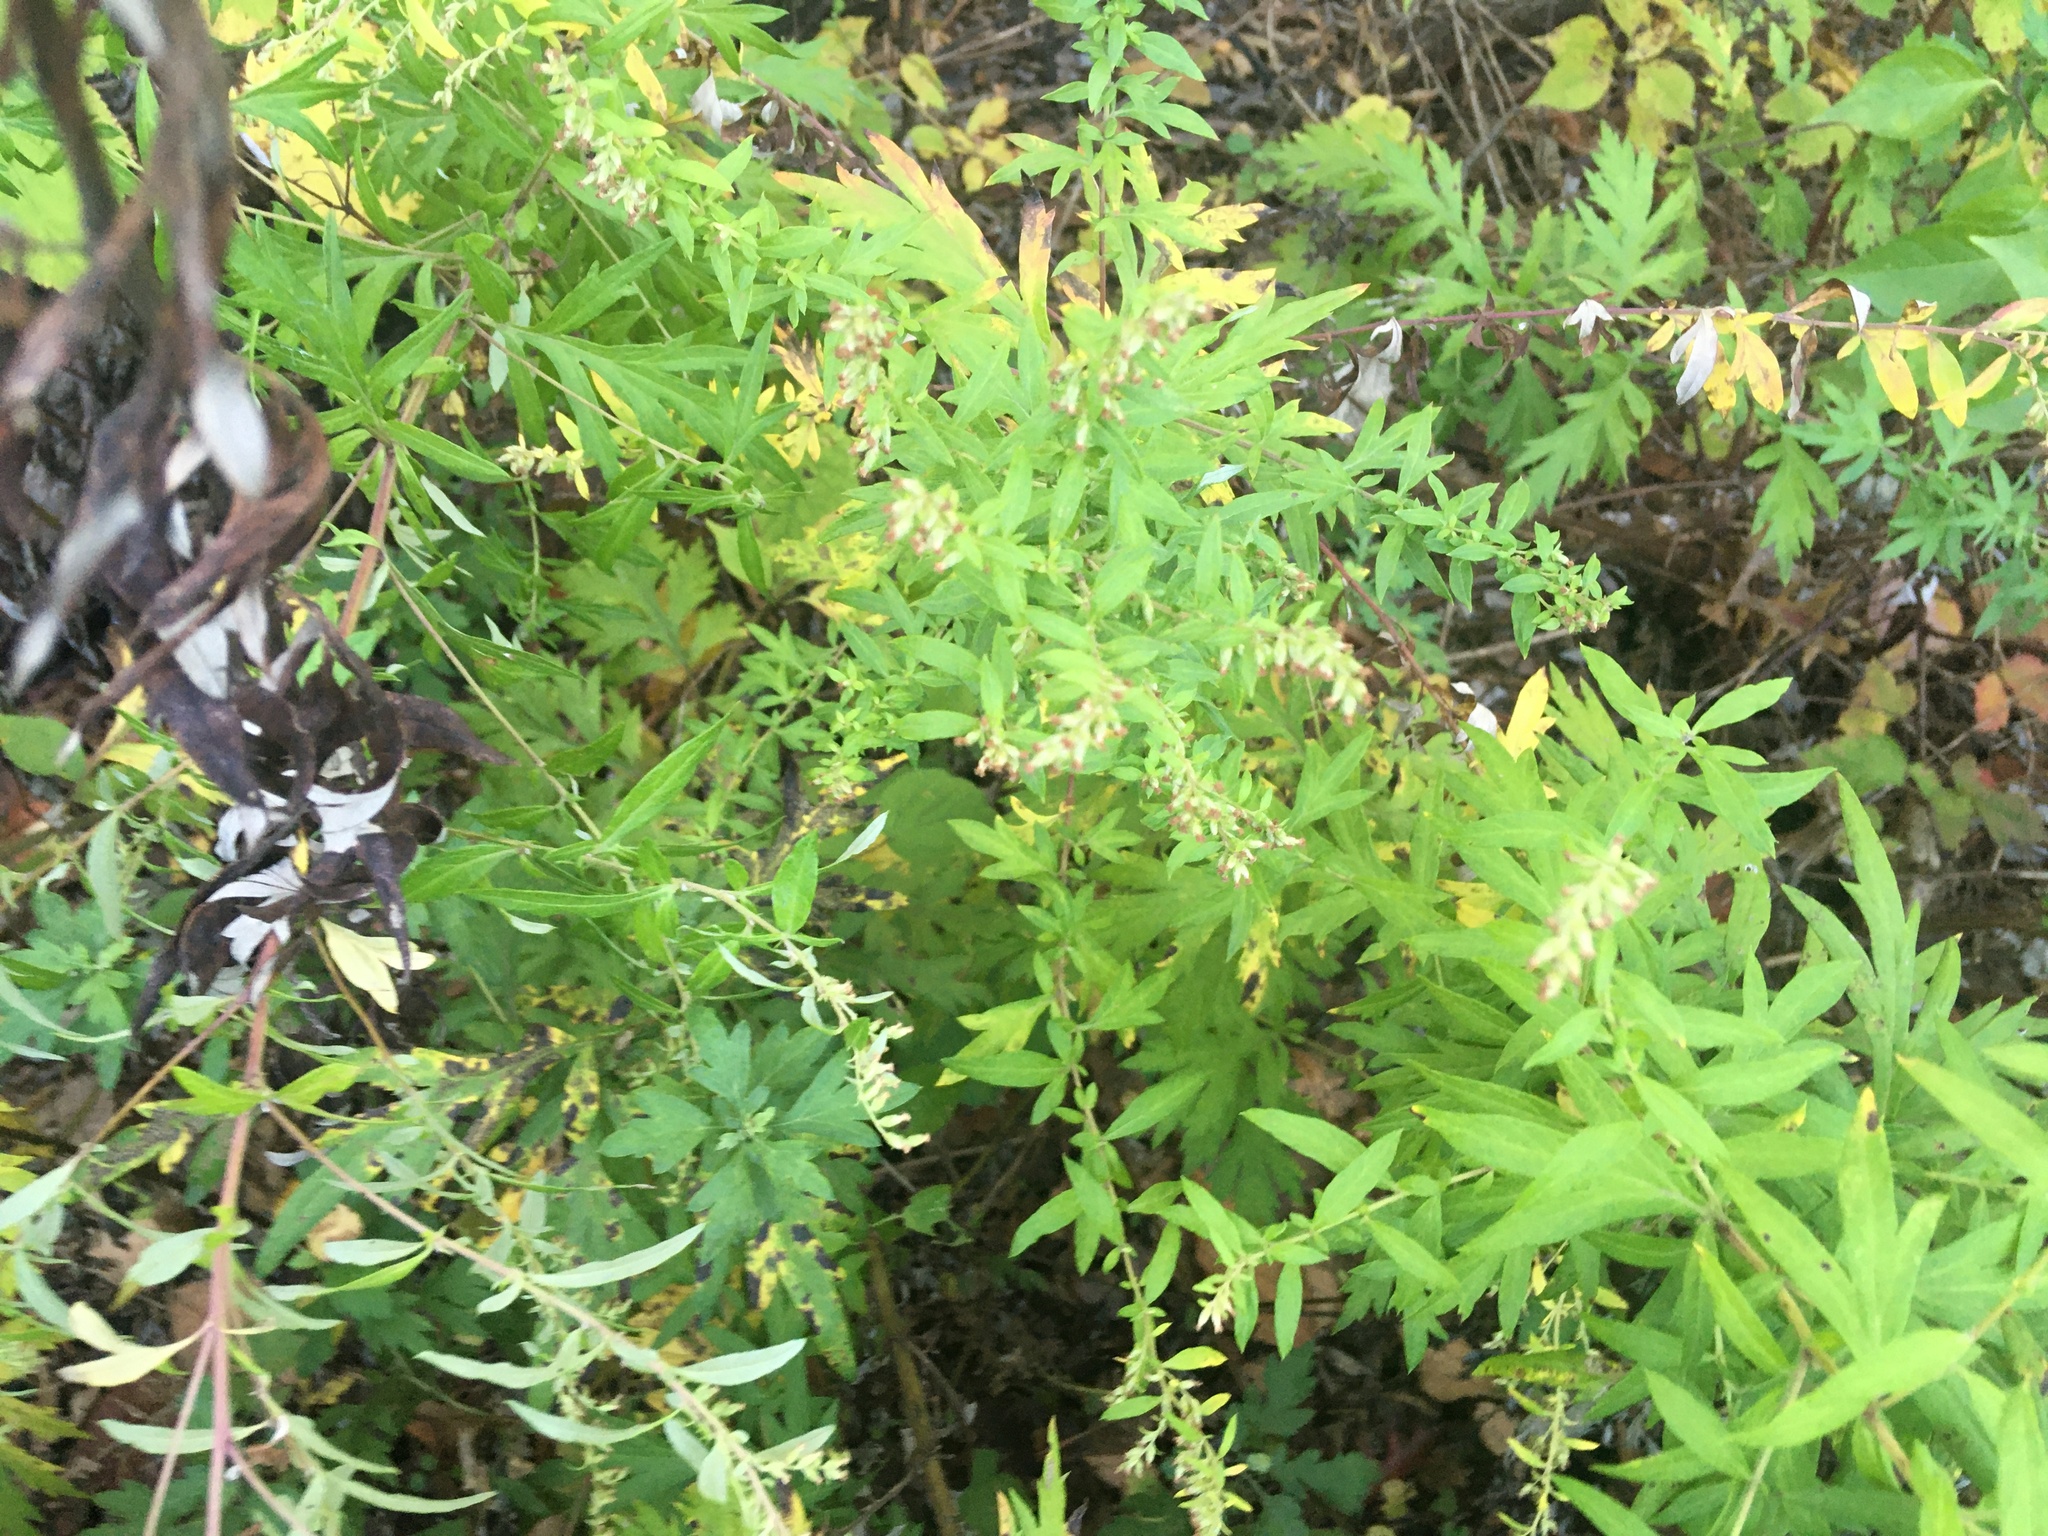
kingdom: Plantae
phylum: Tracheophyta
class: Magnoliopsida
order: Asterales
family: Asteraceae
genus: Artemisia
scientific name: Artemisia vulgaris
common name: Mugwort
